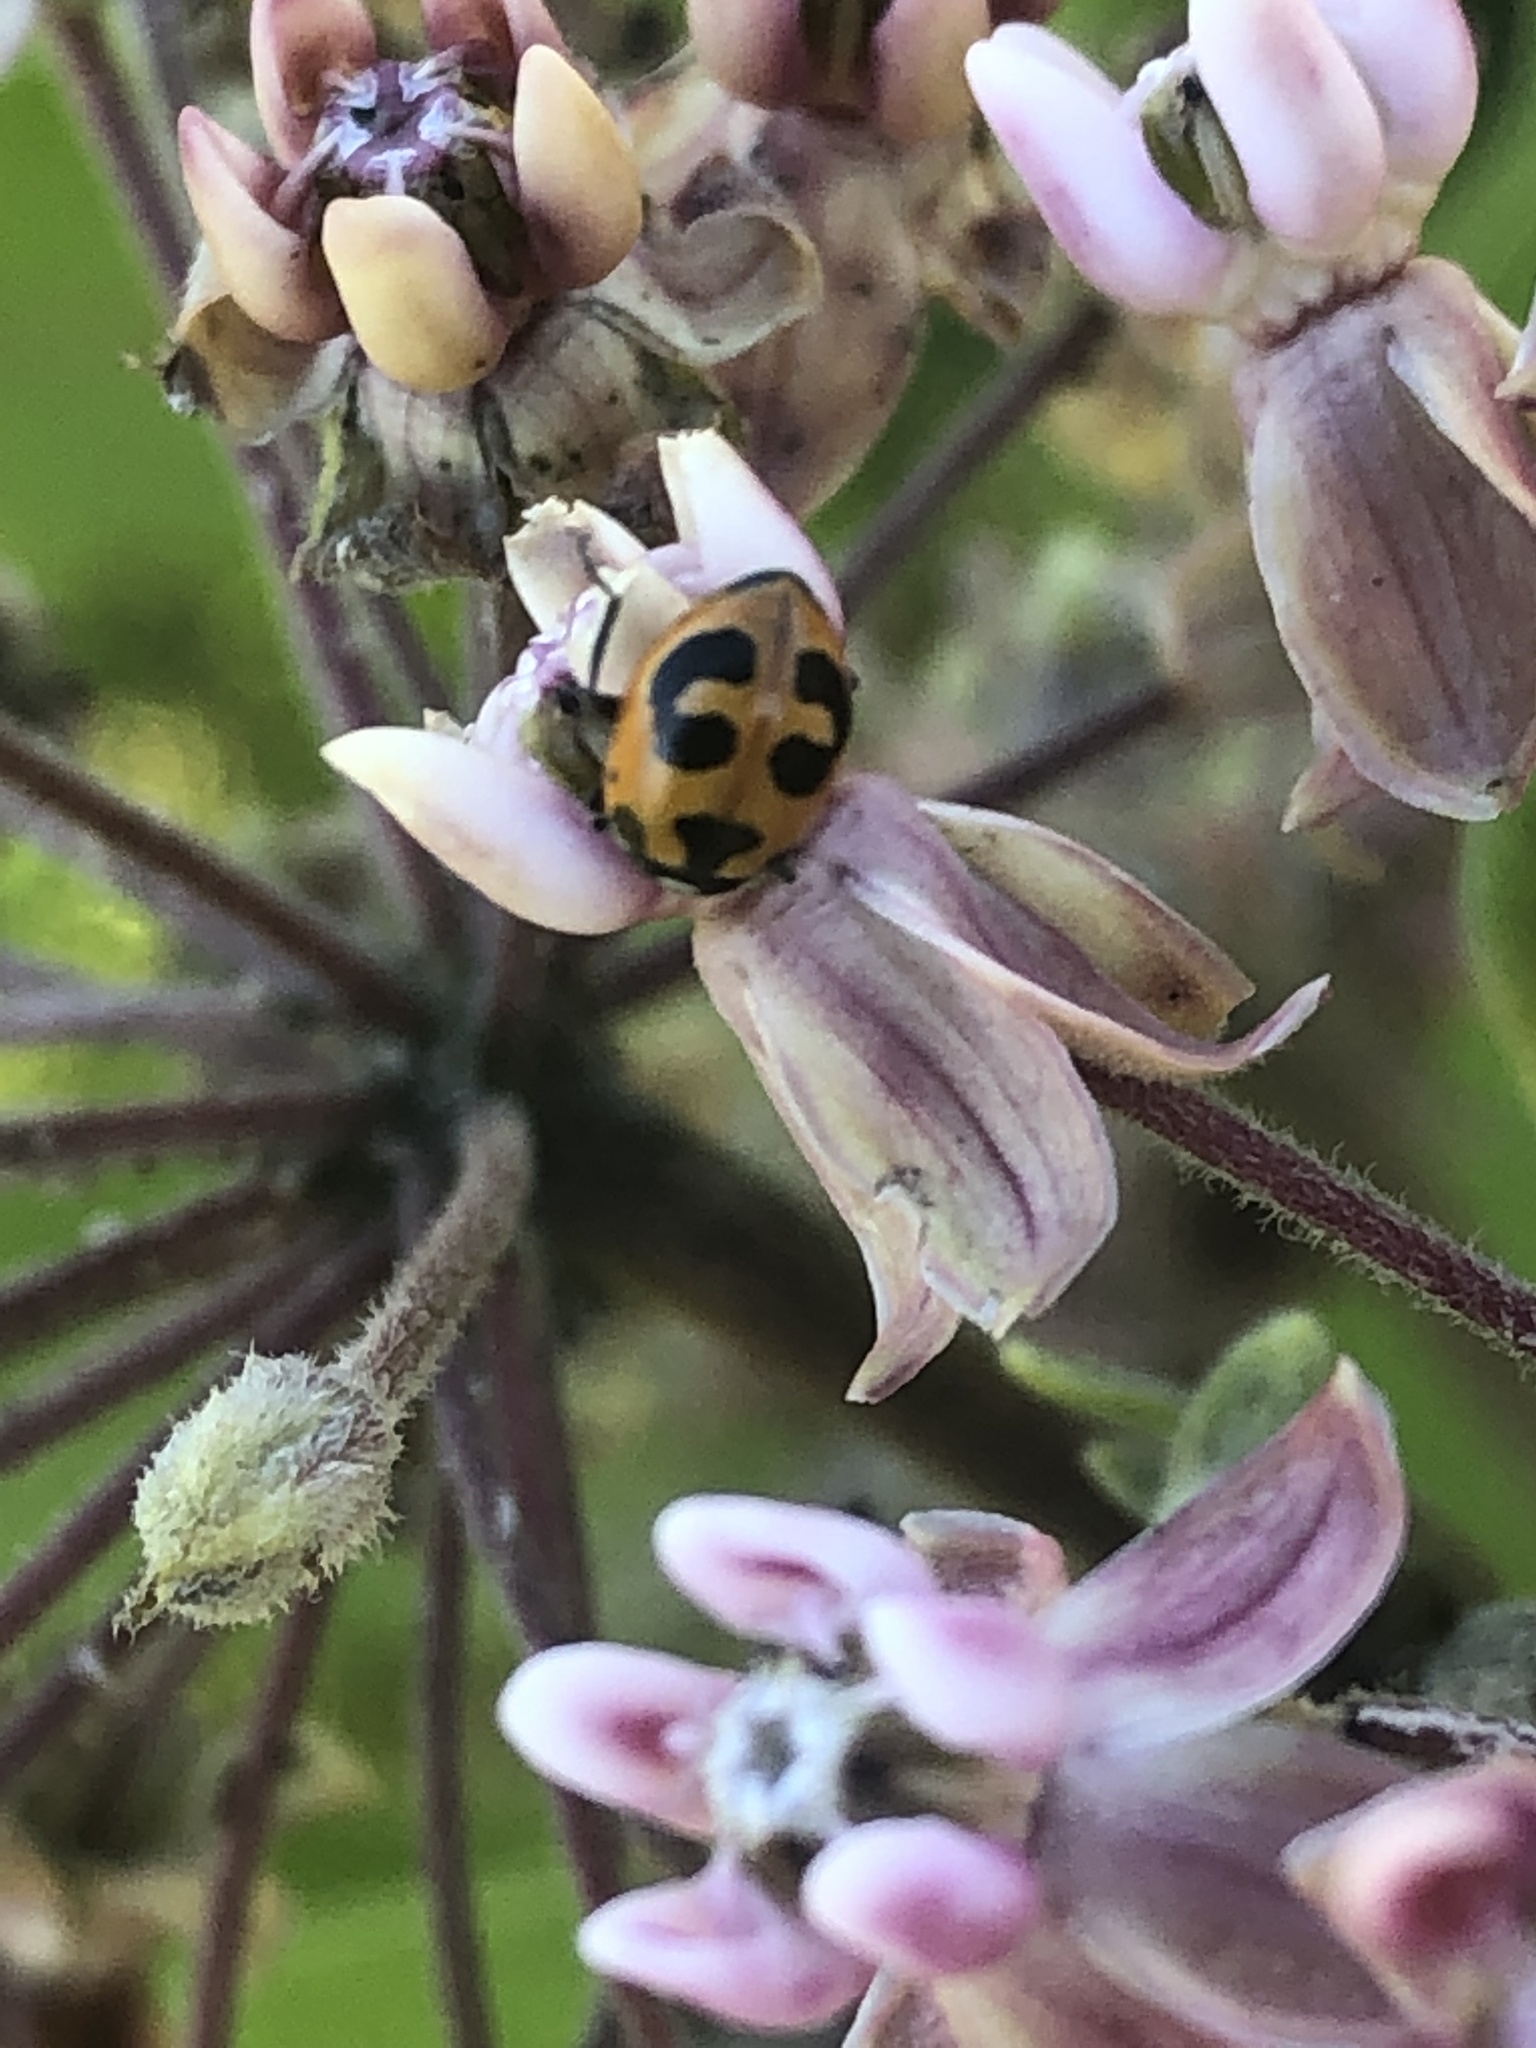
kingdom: Animalia
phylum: Arthropoda
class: Insecta
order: Coleoptera
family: Coccinellidae
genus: Hippodamia
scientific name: Hippodamia parenthesis
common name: Parenthesis lady beetle
